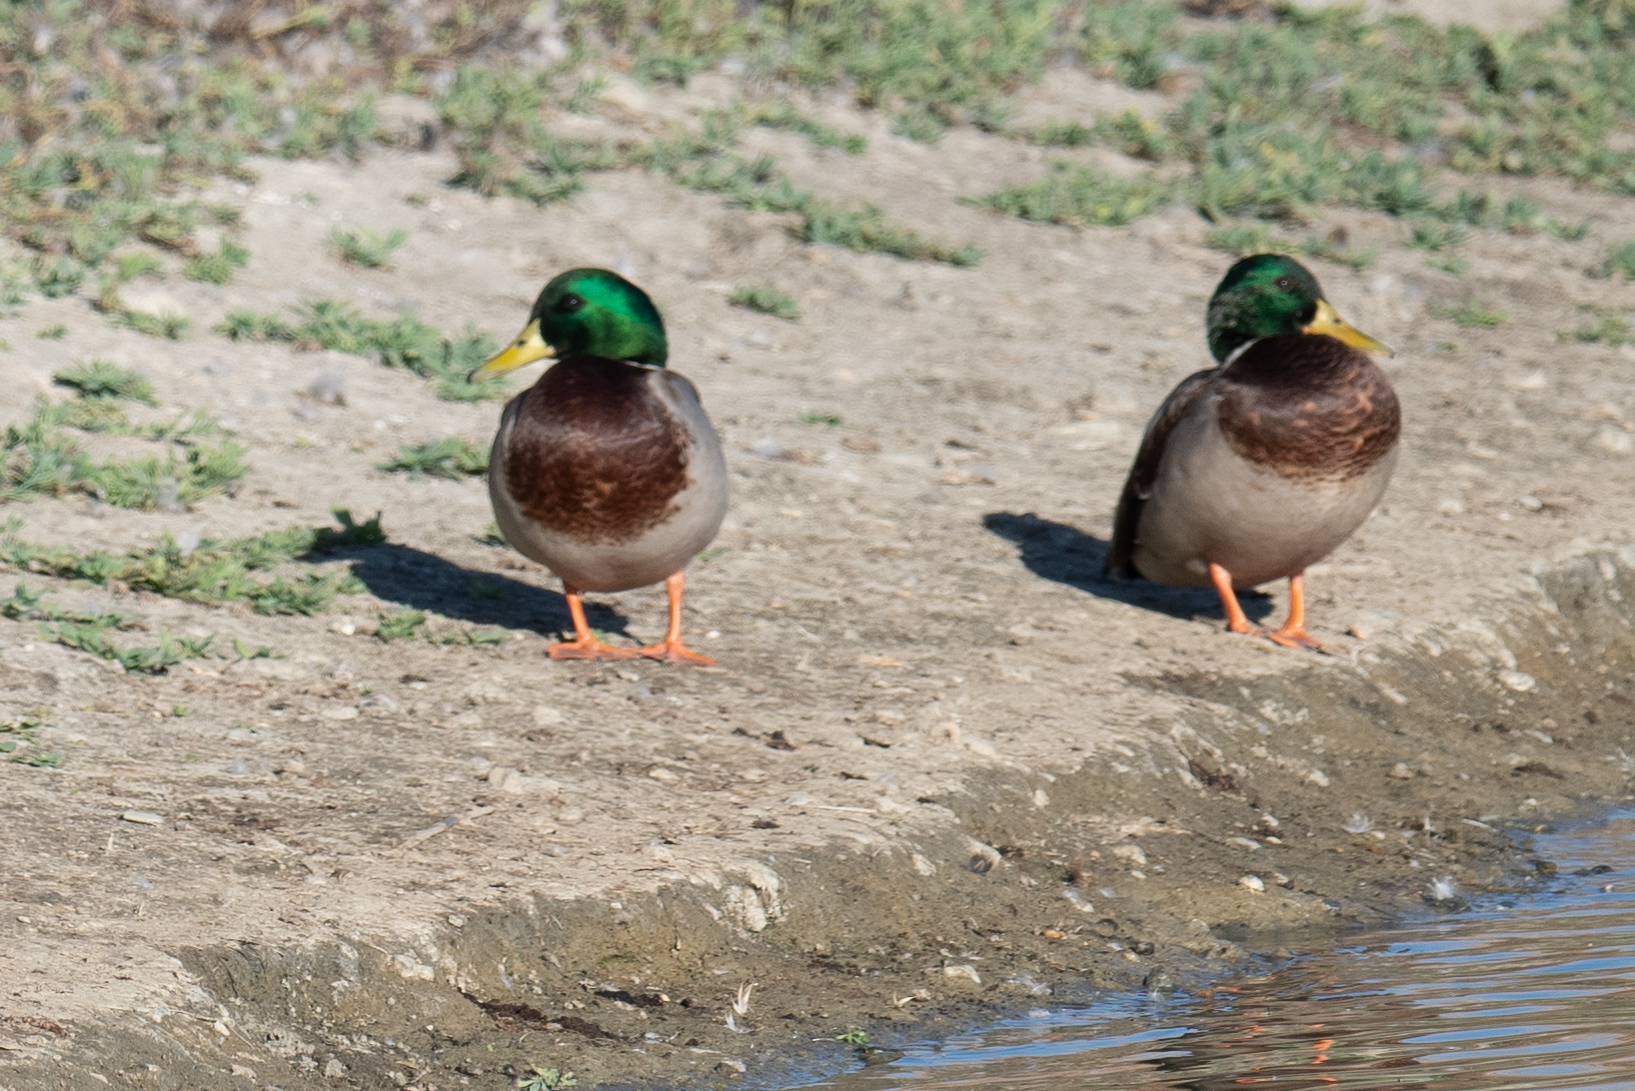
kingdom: Animalia
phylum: Chordata
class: Aves
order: Anseriformes
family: Anatidae
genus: Anas
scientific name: Anas platyrhynchos
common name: Mallard
